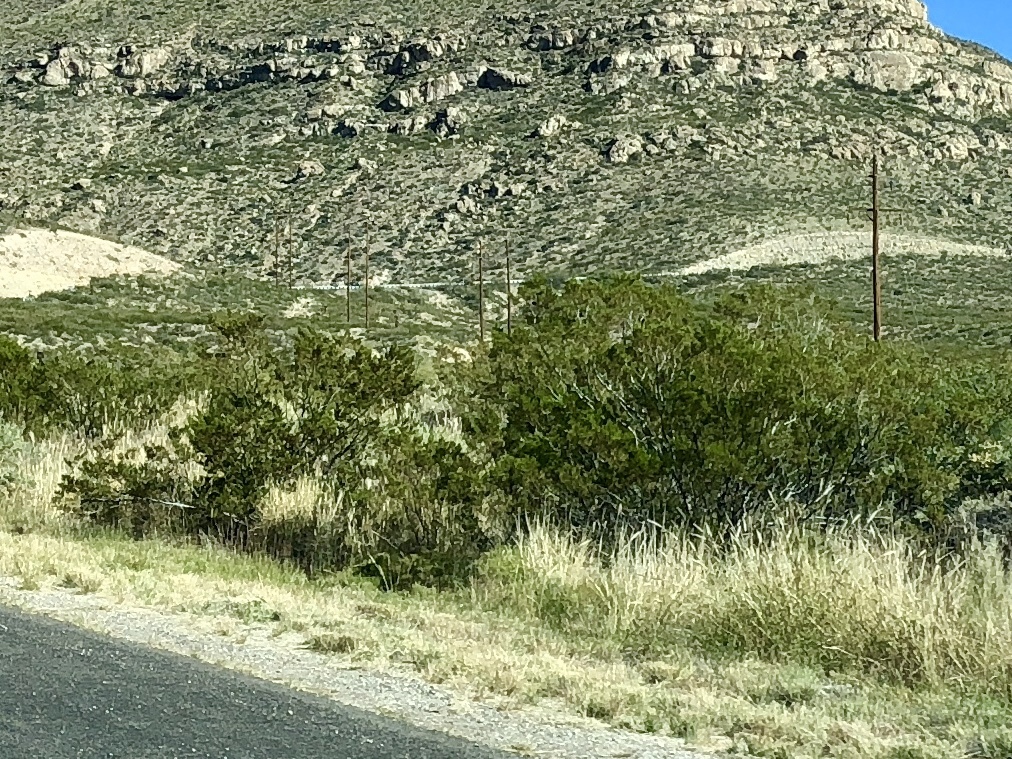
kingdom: Plantae
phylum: Tracheophyta
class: Magnoliopsida
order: Zygophyllales
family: Zygophyllaceae
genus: Larrea
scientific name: Larrea tridentata
